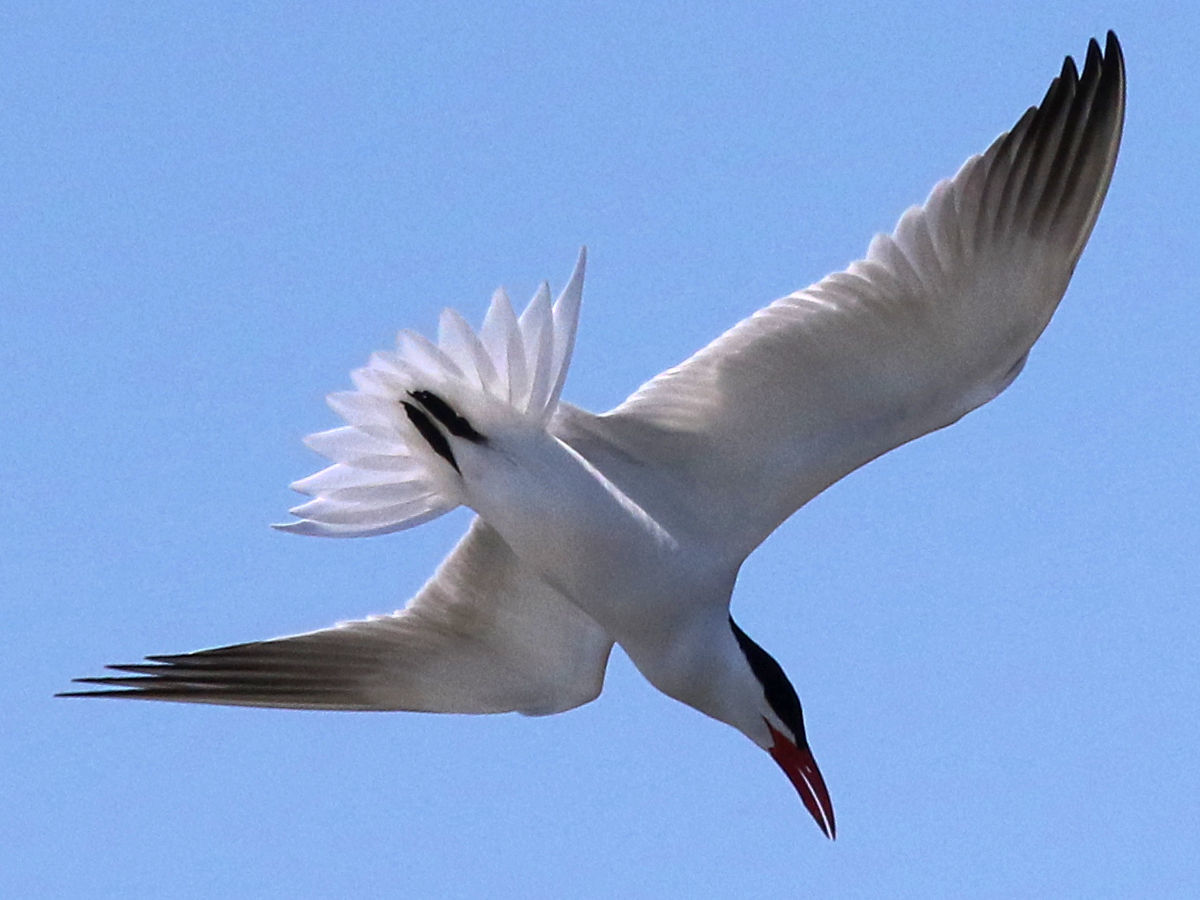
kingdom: Animalia
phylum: Chordata
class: Aves
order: Charadriiformes
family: Laridae
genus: Hydroprogne
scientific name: Hydroprogne caspia
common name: Caspian tern
